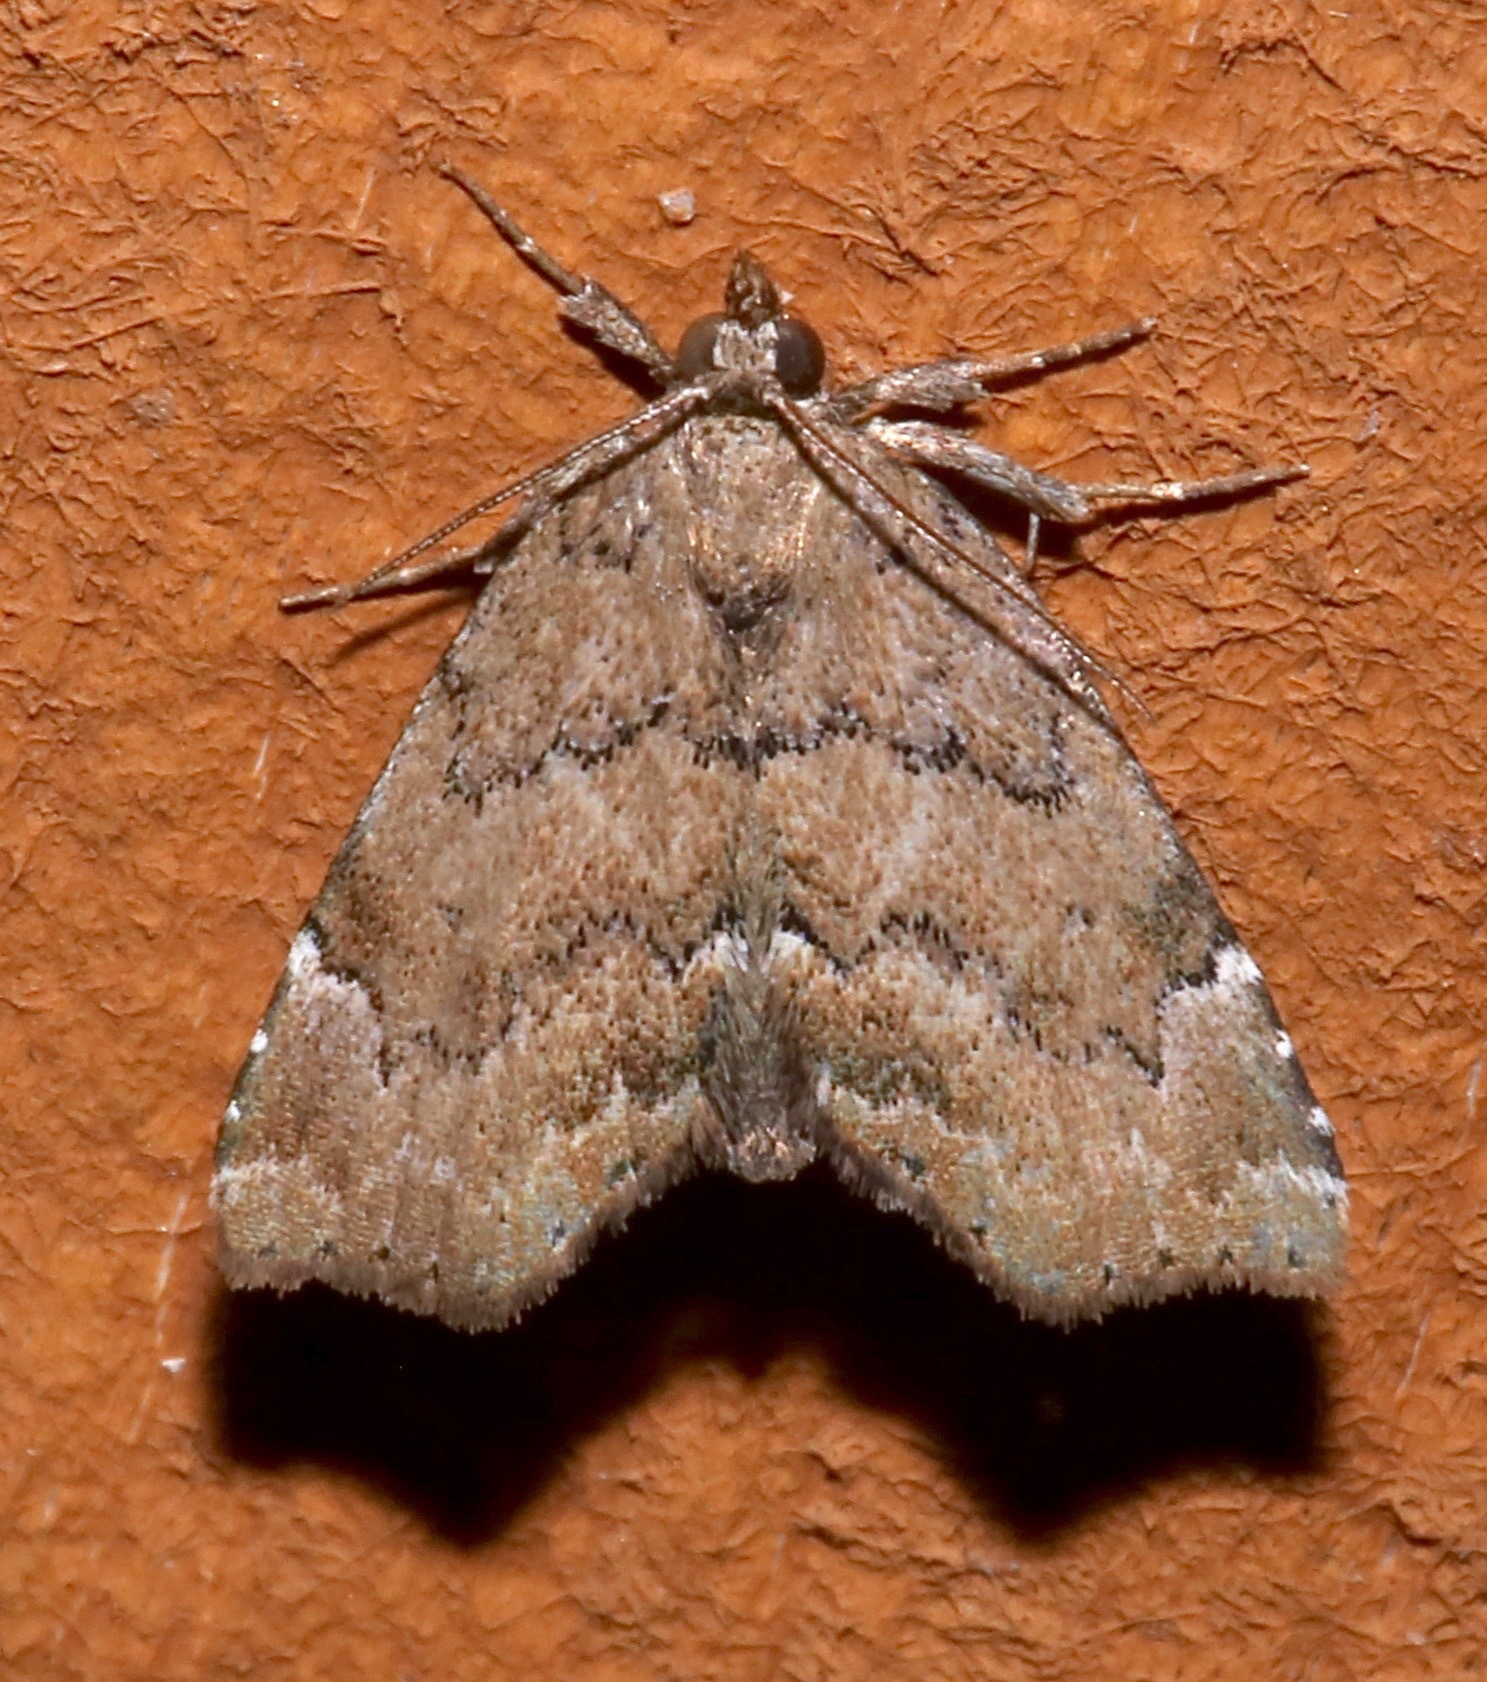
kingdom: Animalia
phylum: Arthropoda
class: Insecta
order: Lepidoptera
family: Erebidae
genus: Cutina
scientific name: Cutina aluticolor
